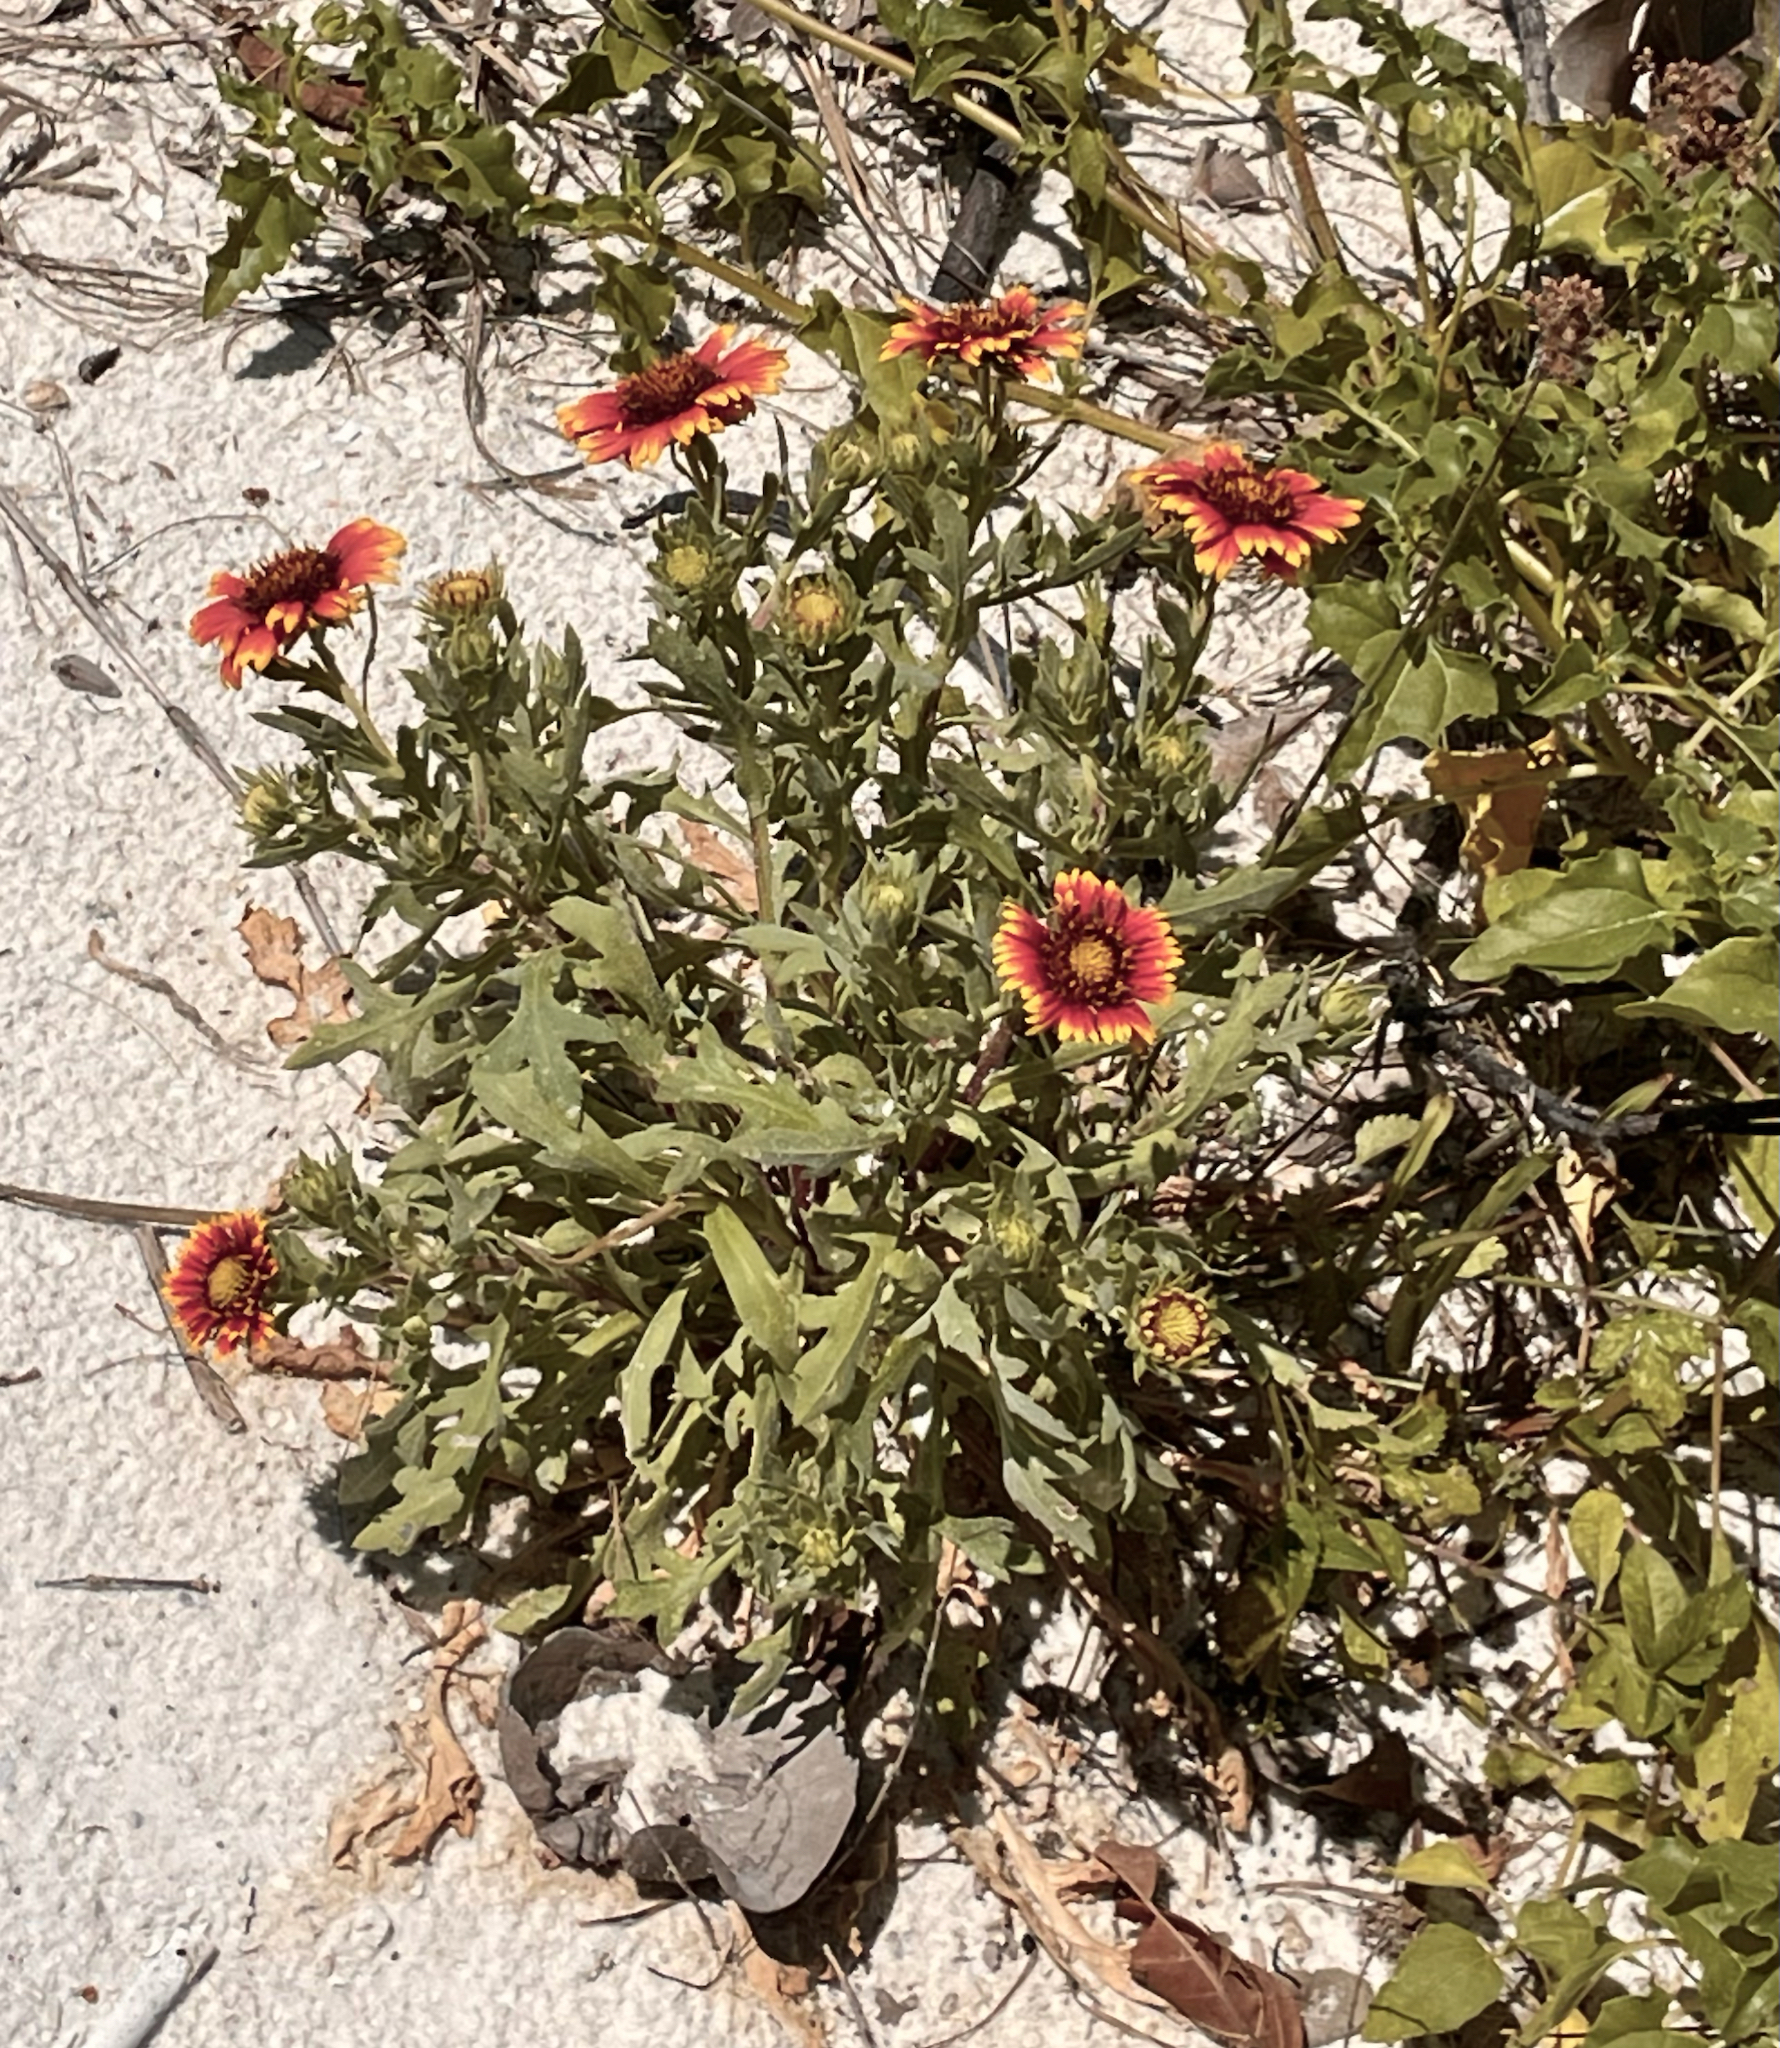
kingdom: Plantae
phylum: Tracheophyta
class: Magnoliopsida
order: Asterales
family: Asteraceae
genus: Gaillardia
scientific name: Gaillardia pulchella
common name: Firewheel
